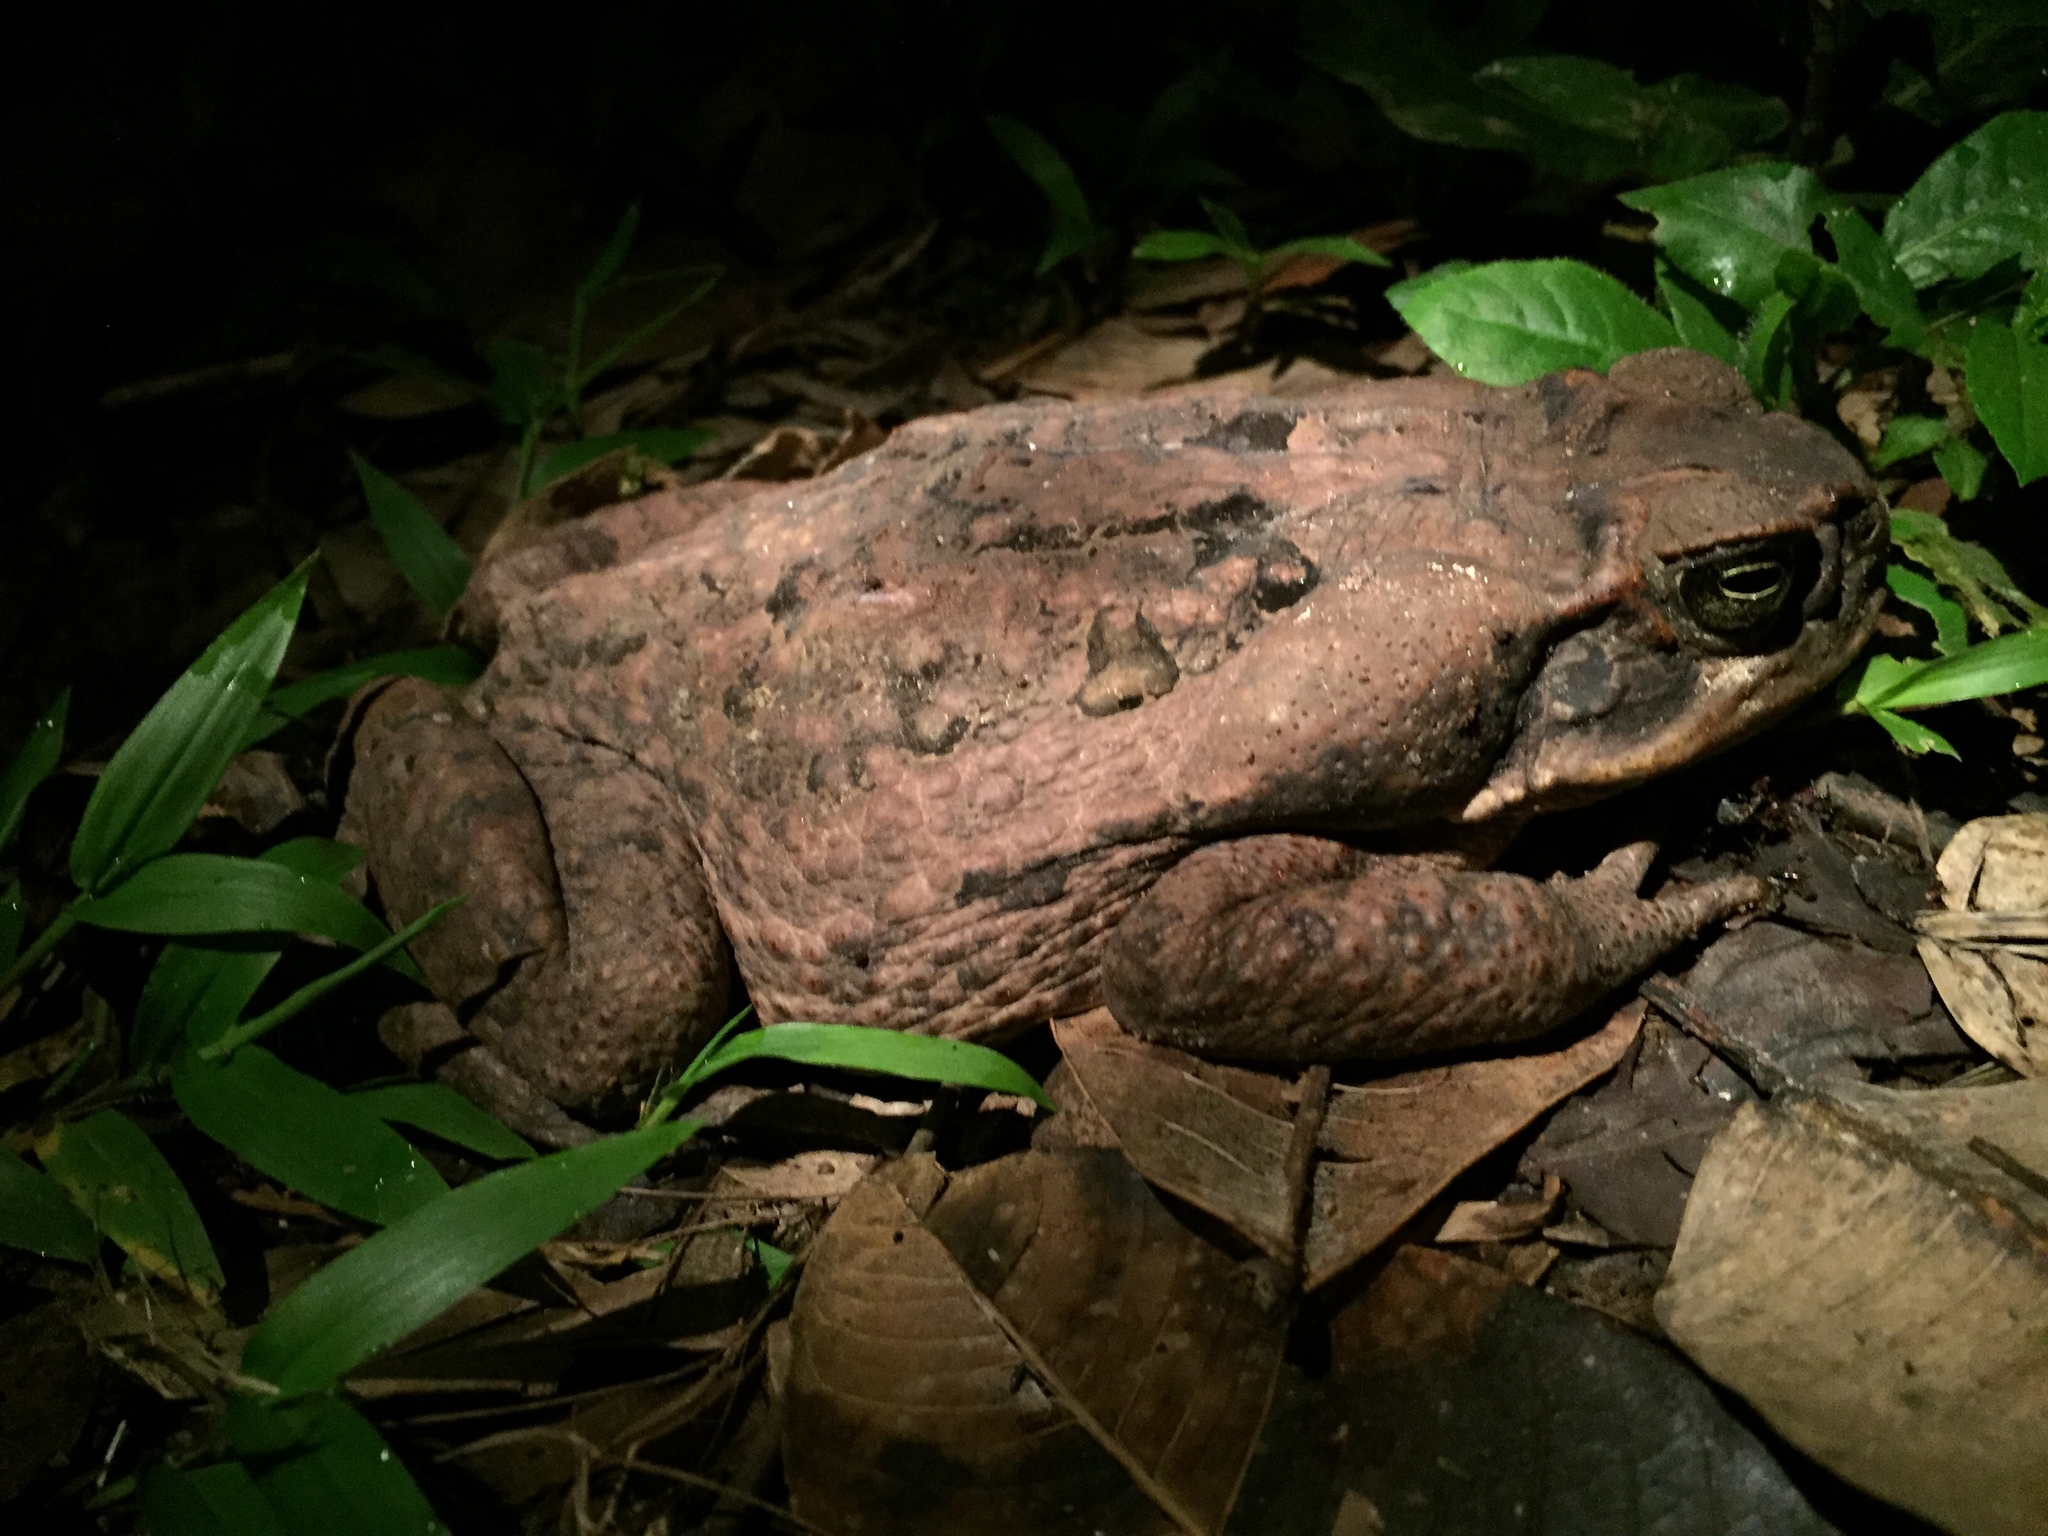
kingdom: Animalia
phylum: Chordata
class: Amphibia
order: Anura
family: Bufonidae
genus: Rhinella
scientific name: Rhinella marina
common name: Cane toad
